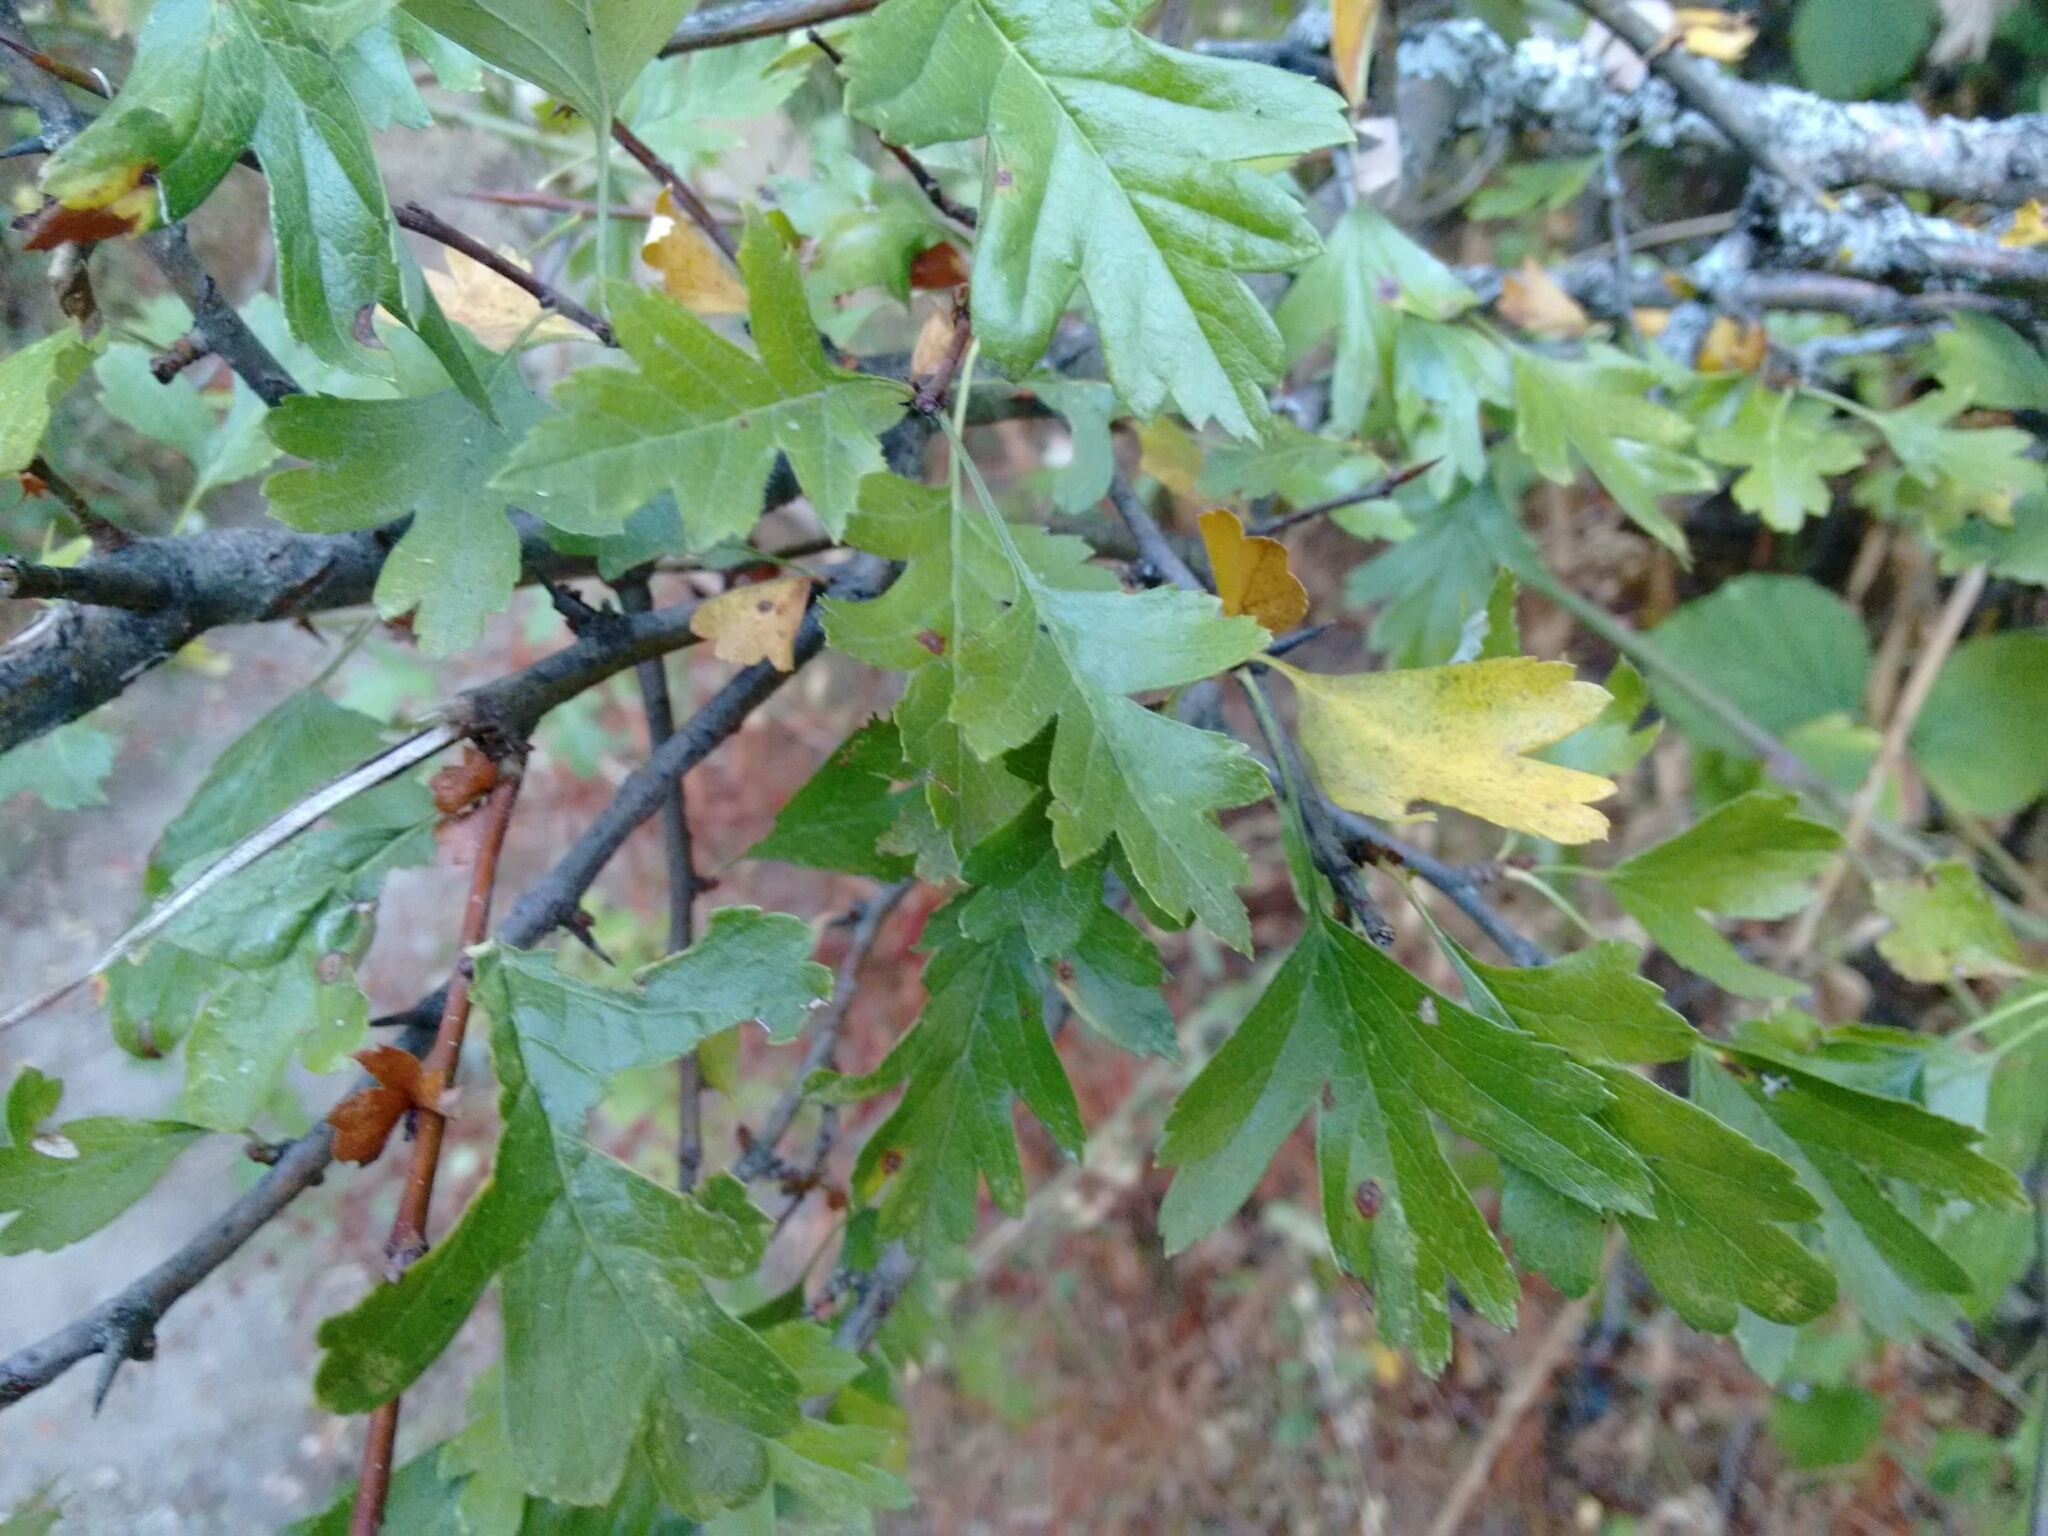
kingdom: Plantae
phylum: Tracheophyta
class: Magnoliopsida
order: Rosales
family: Rosaceae
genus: Crataegus
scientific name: Crataegus monogyna
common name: Hawthorn
